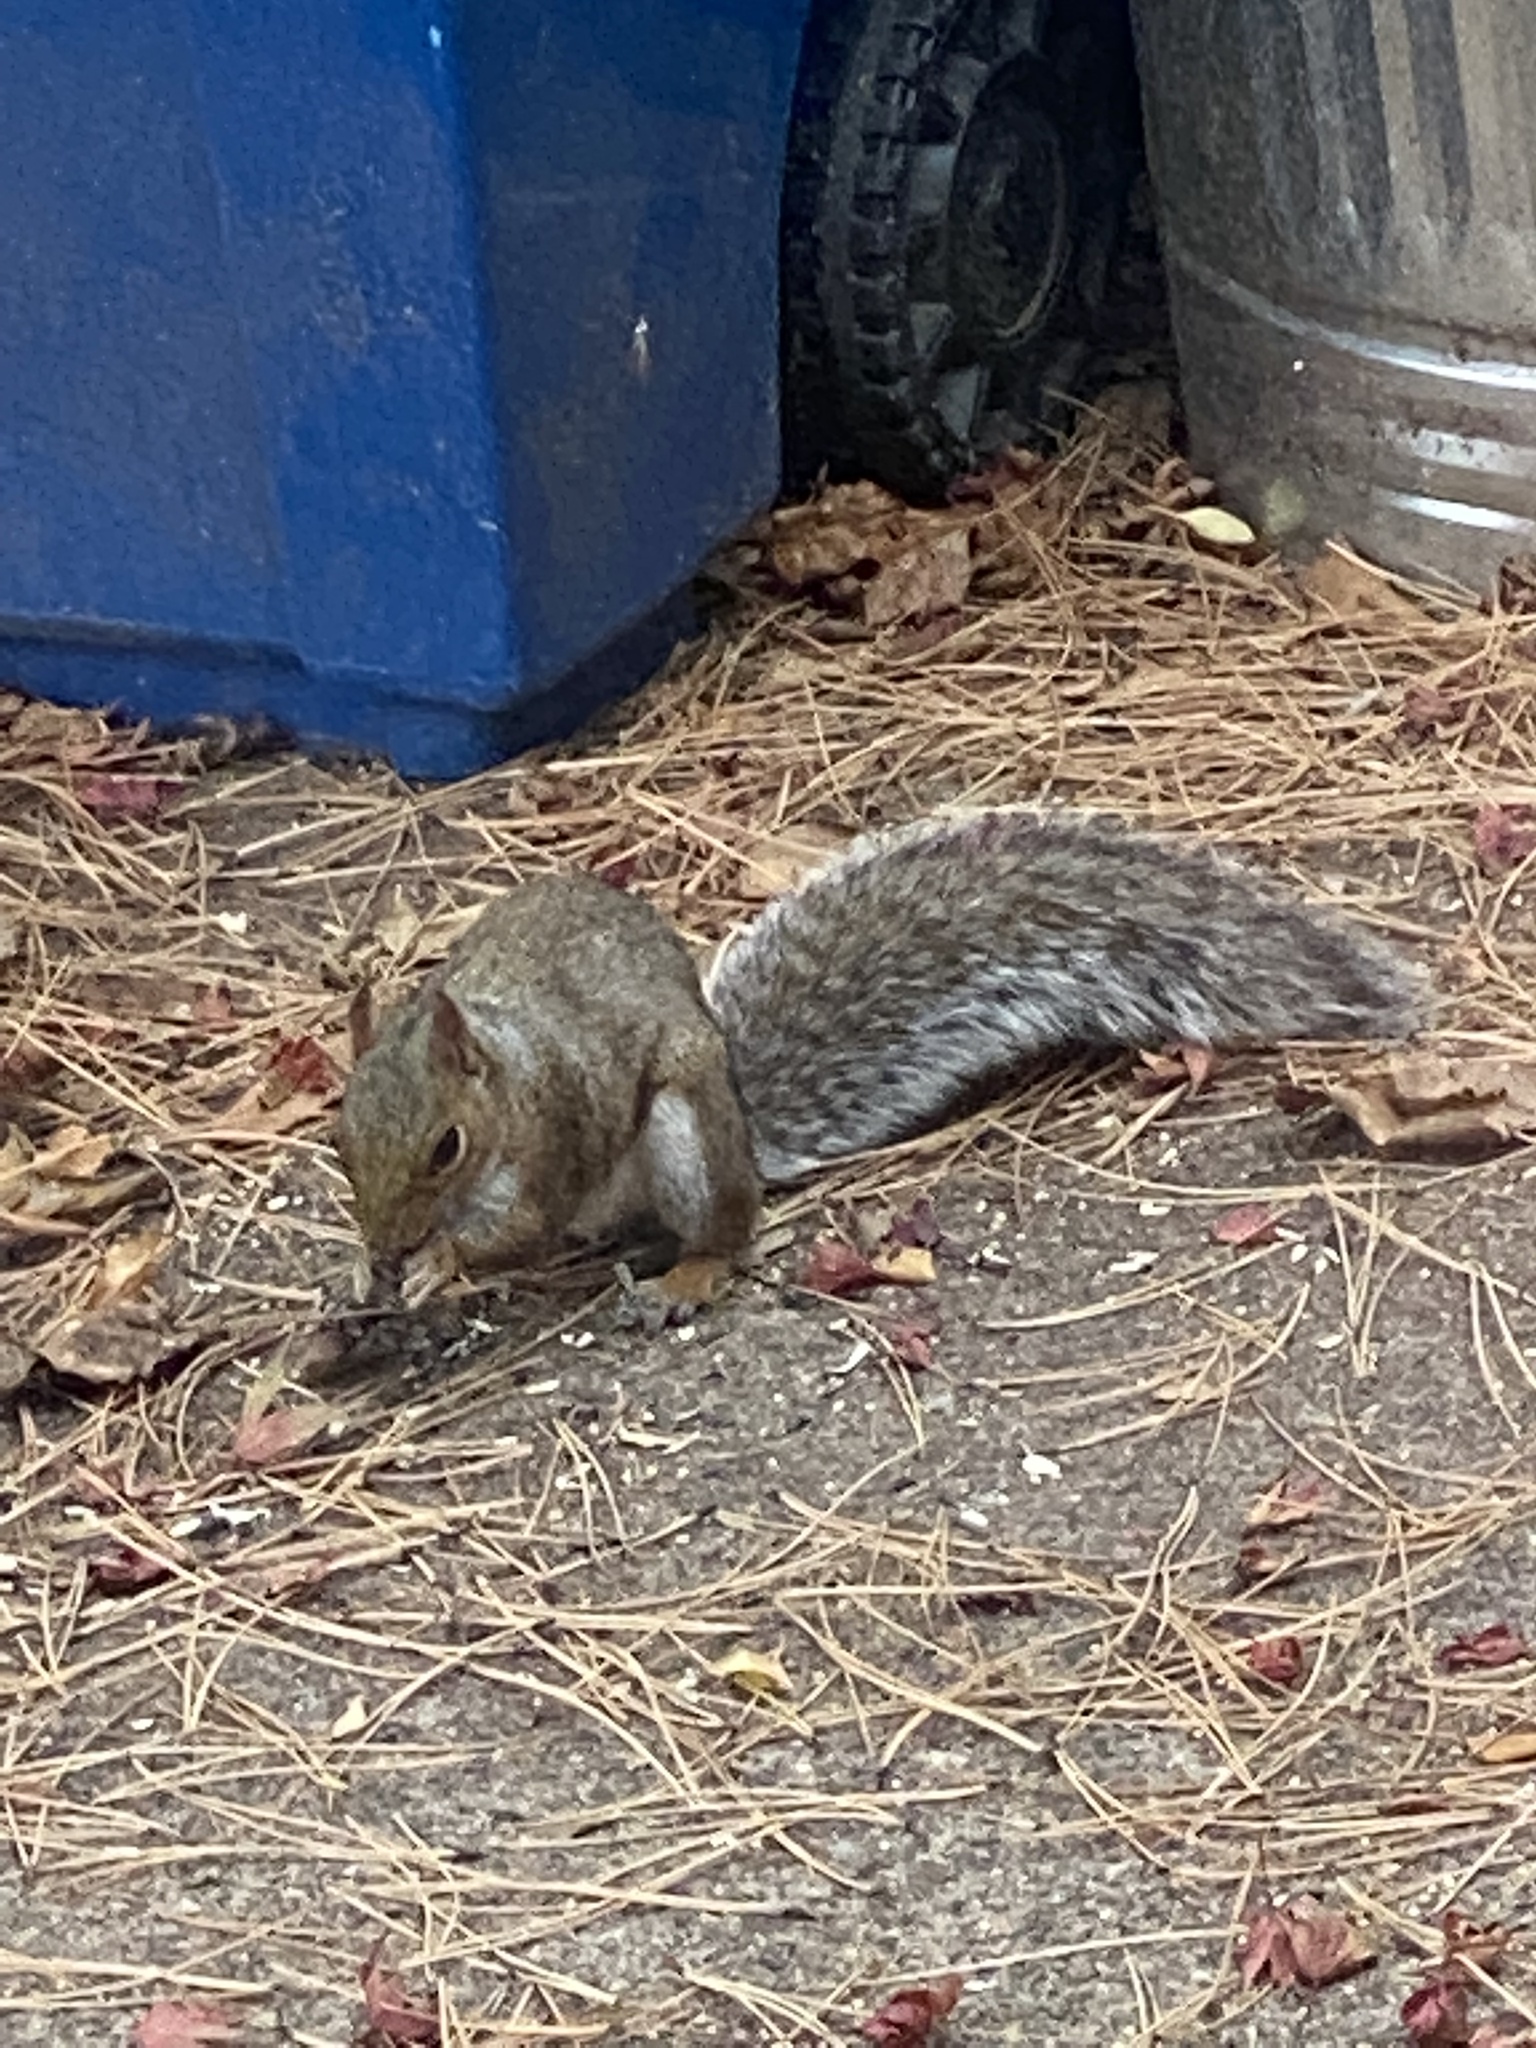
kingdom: Animalia
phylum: Chordata
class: Mammalia
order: Rodentia
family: Sciuridae
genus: Sciurus
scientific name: Sciurus carolinensis
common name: Eastern gray squirrel
